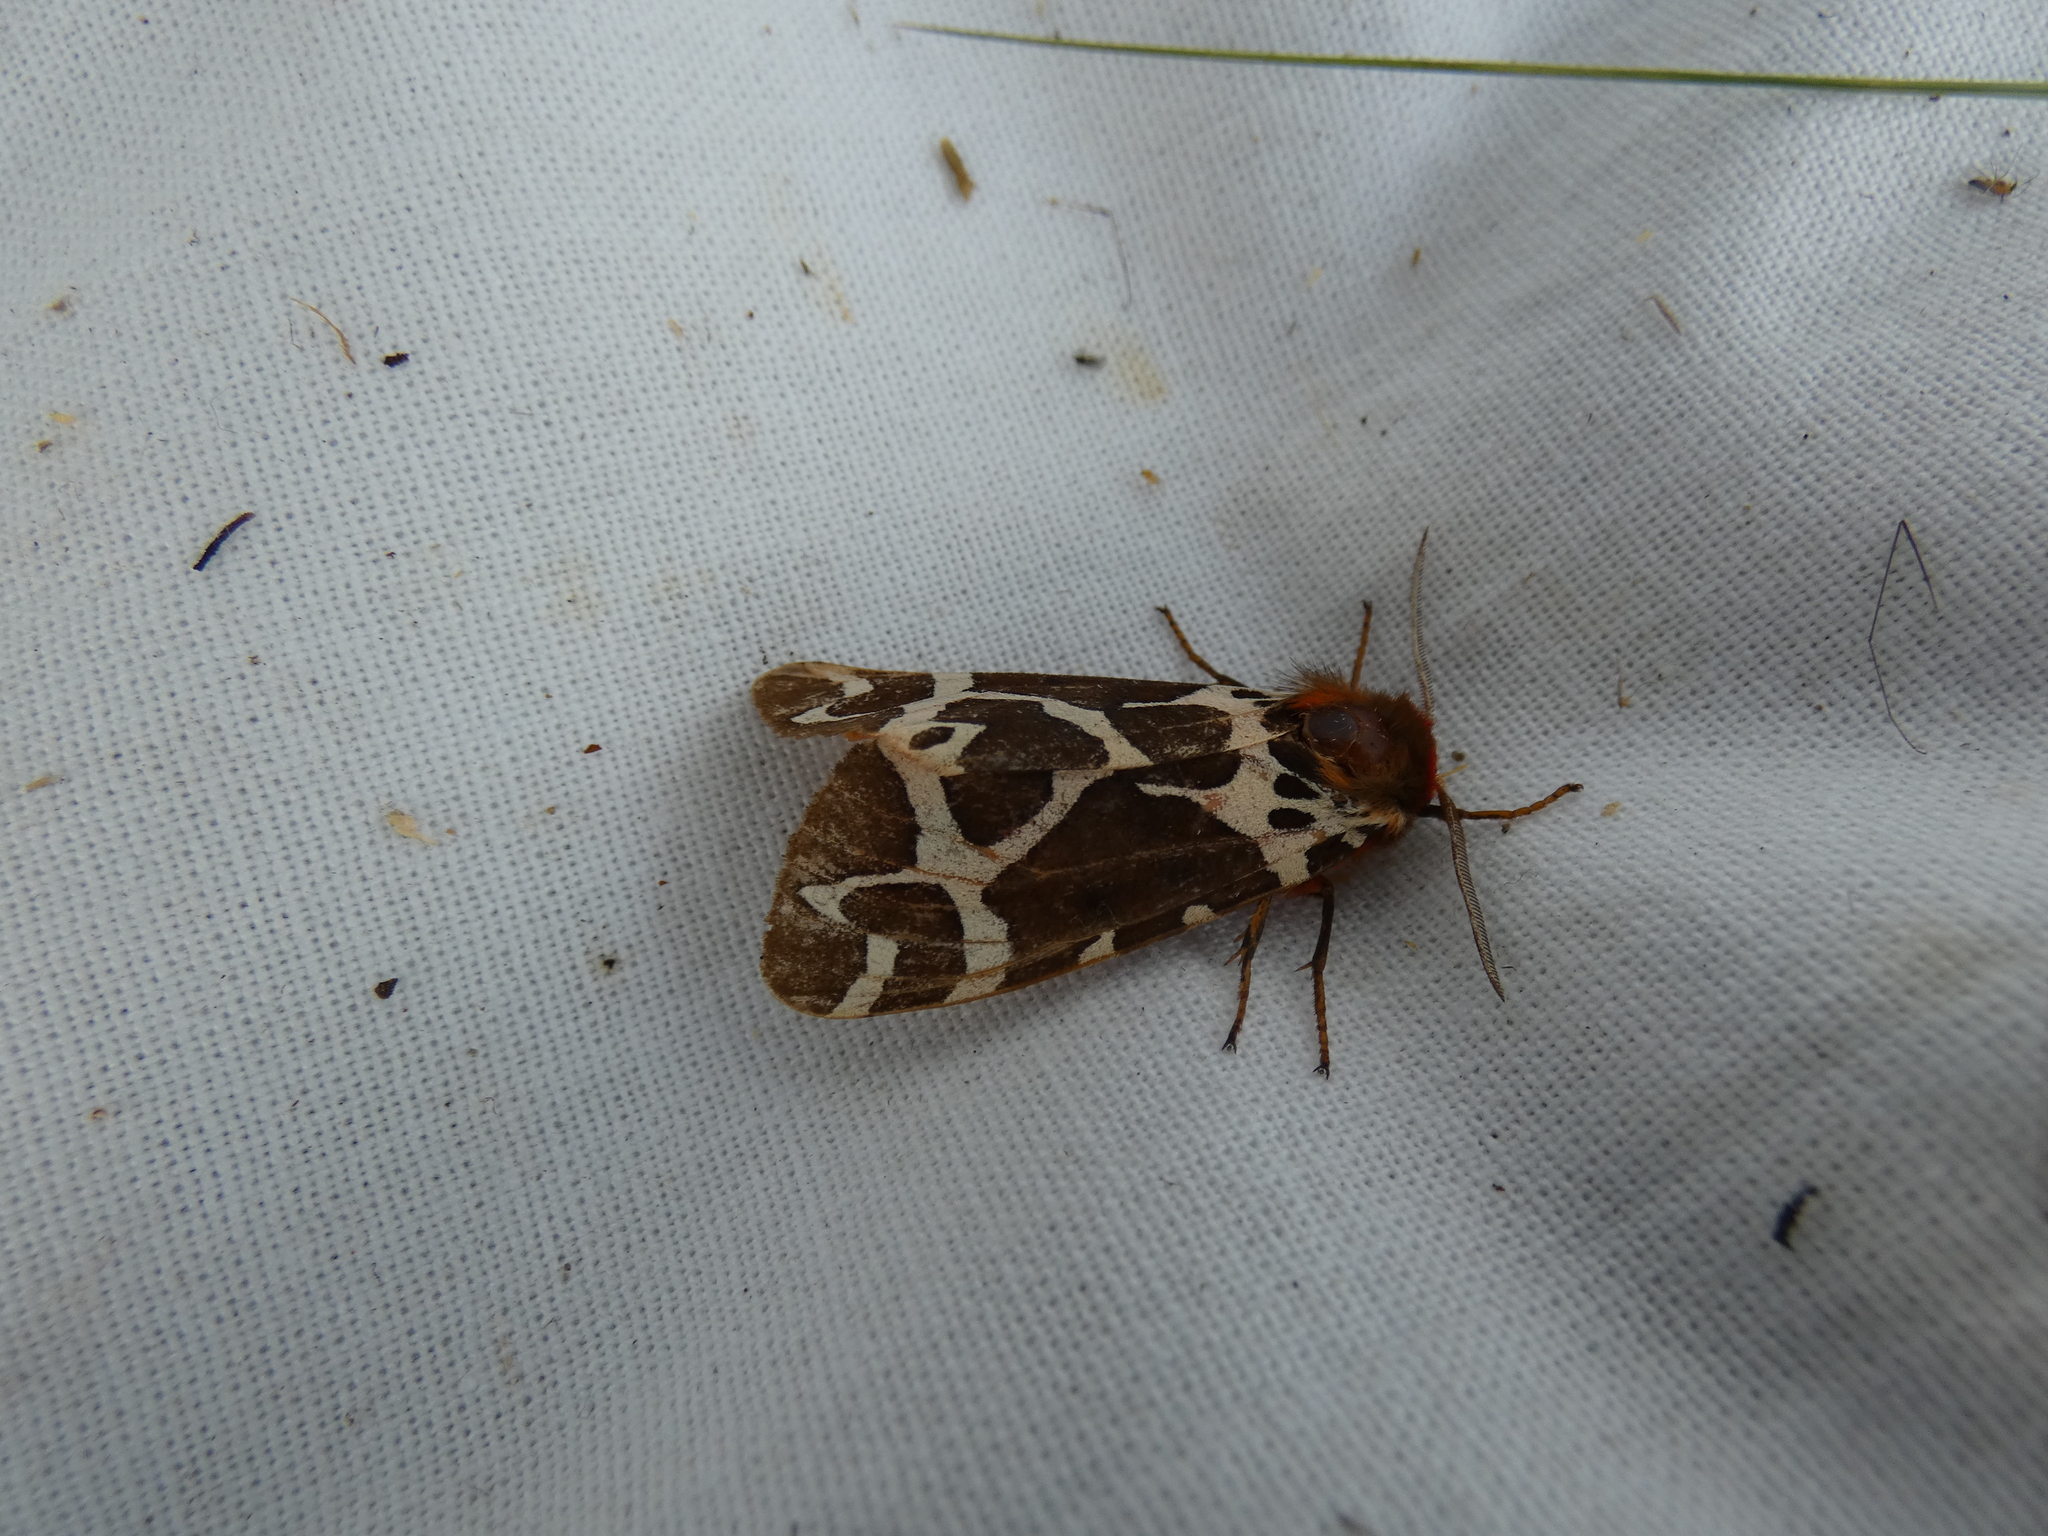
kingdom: Animalia
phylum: Arthropoda
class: Insecta
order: Lepidoptera
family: Erebidae
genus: Arctia
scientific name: Arctia caja
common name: Garden tiger
